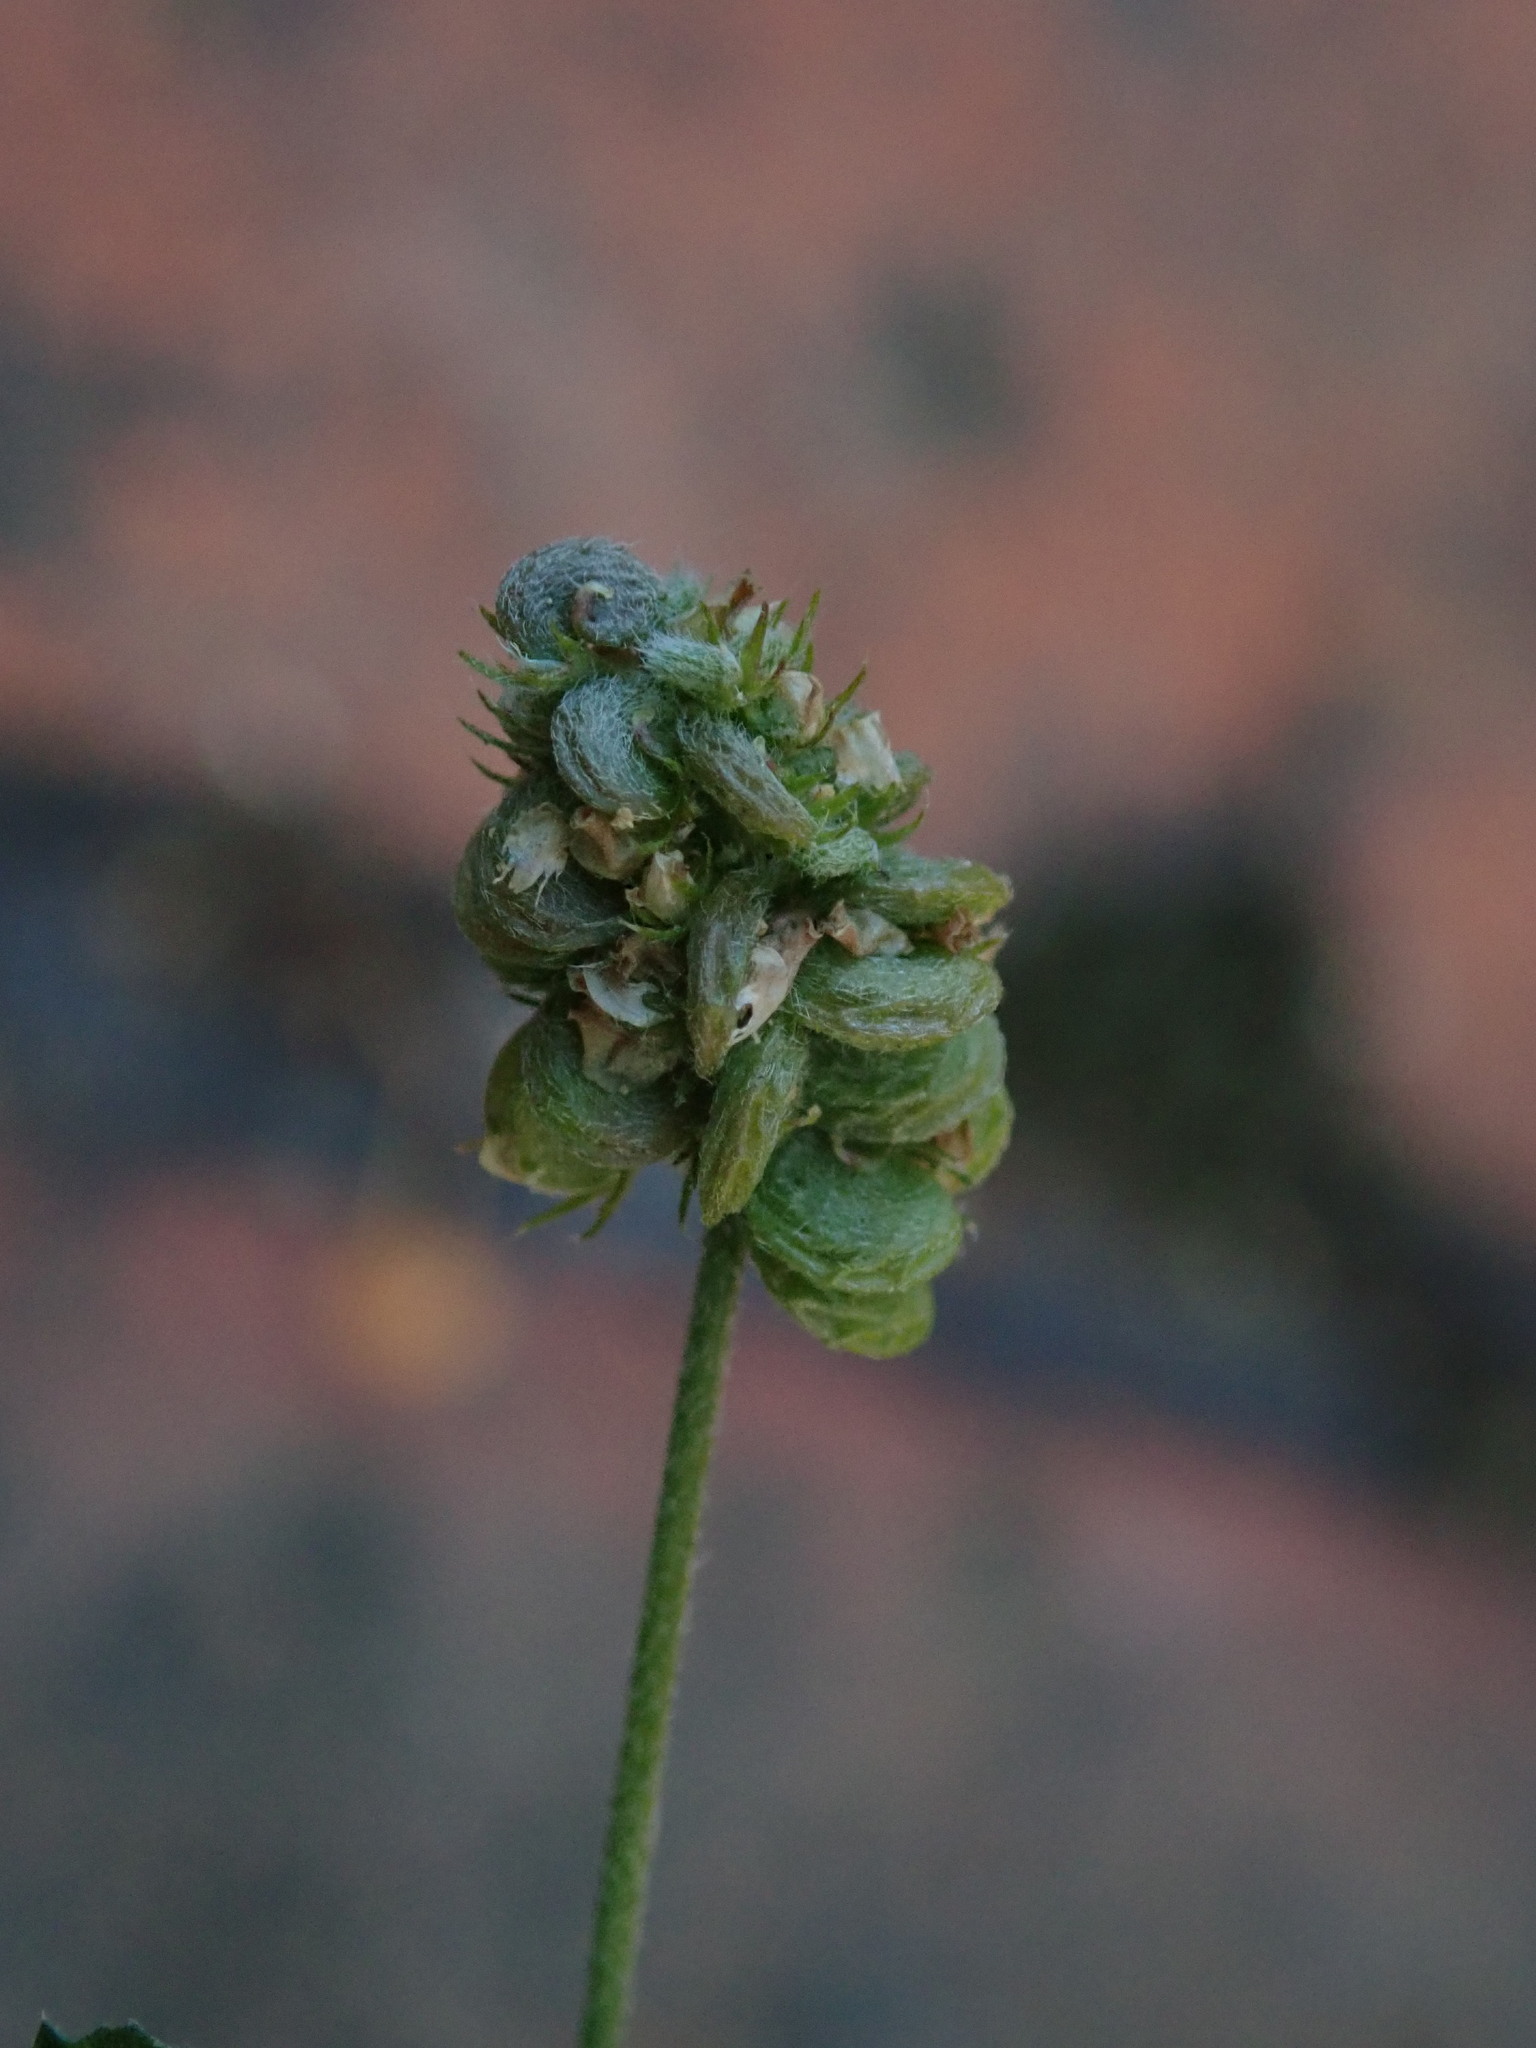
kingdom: Plantae
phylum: Tracheophyta
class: Magnoliopsida
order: Fabales
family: Fabaceae
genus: Medicago
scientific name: Medicago lupulina
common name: Black medick
